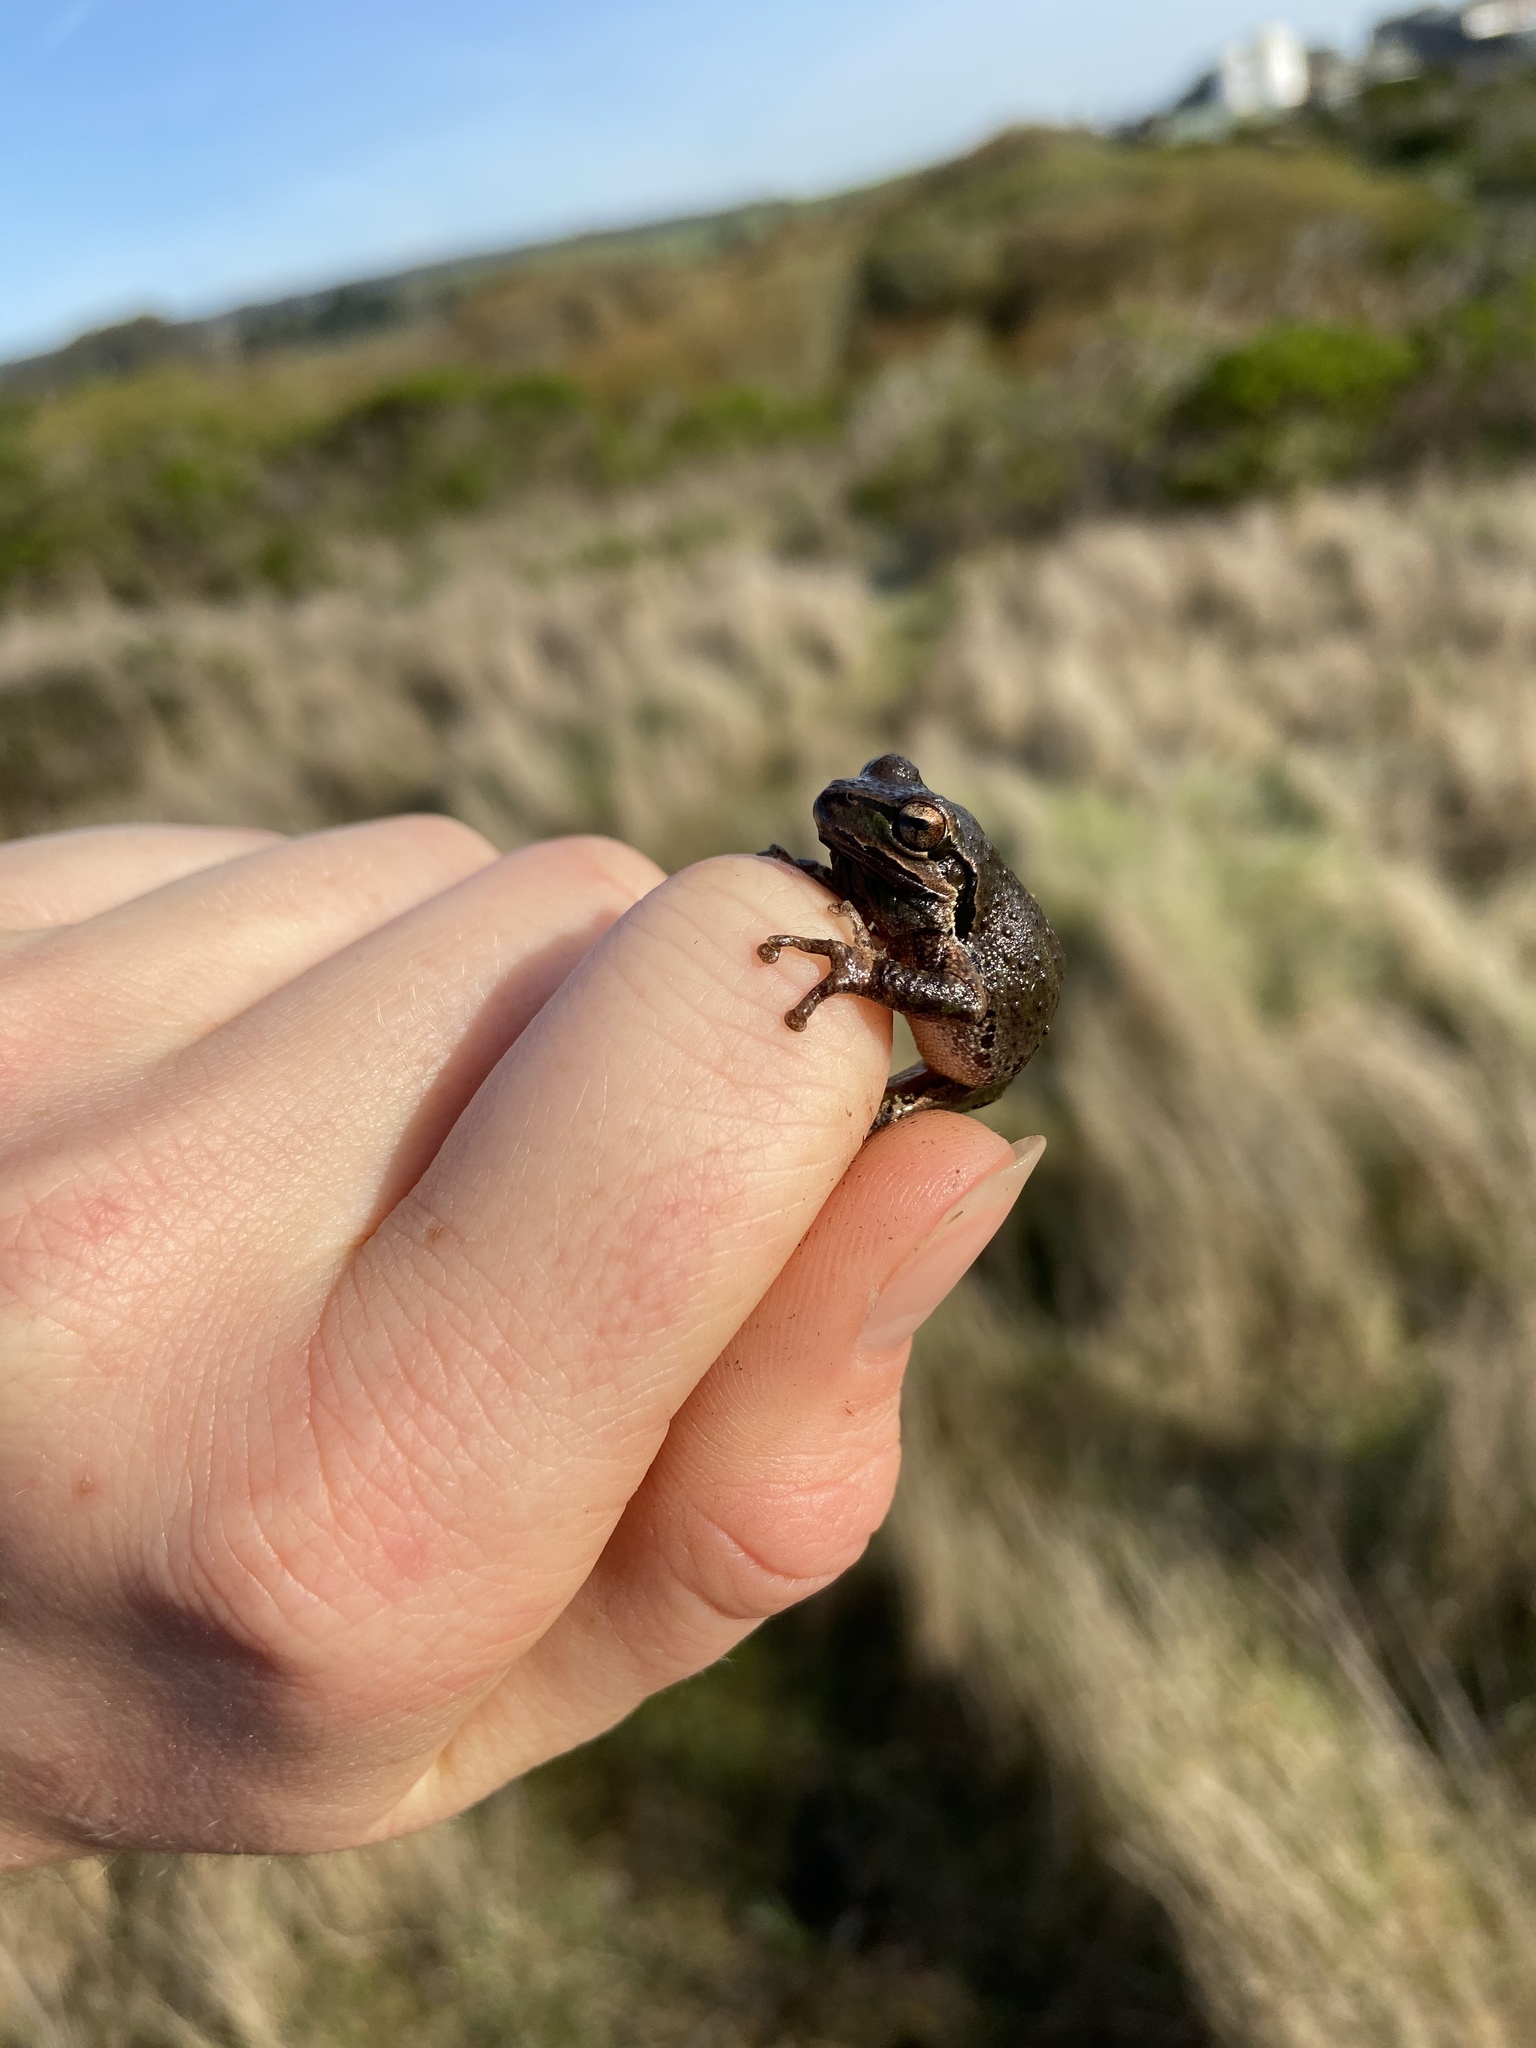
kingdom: Animalia
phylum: Chordata
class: Amphibia
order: Anura
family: Hylidae
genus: Pseudacris
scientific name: Pseudacris regilla
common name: Pacific chorus frog
